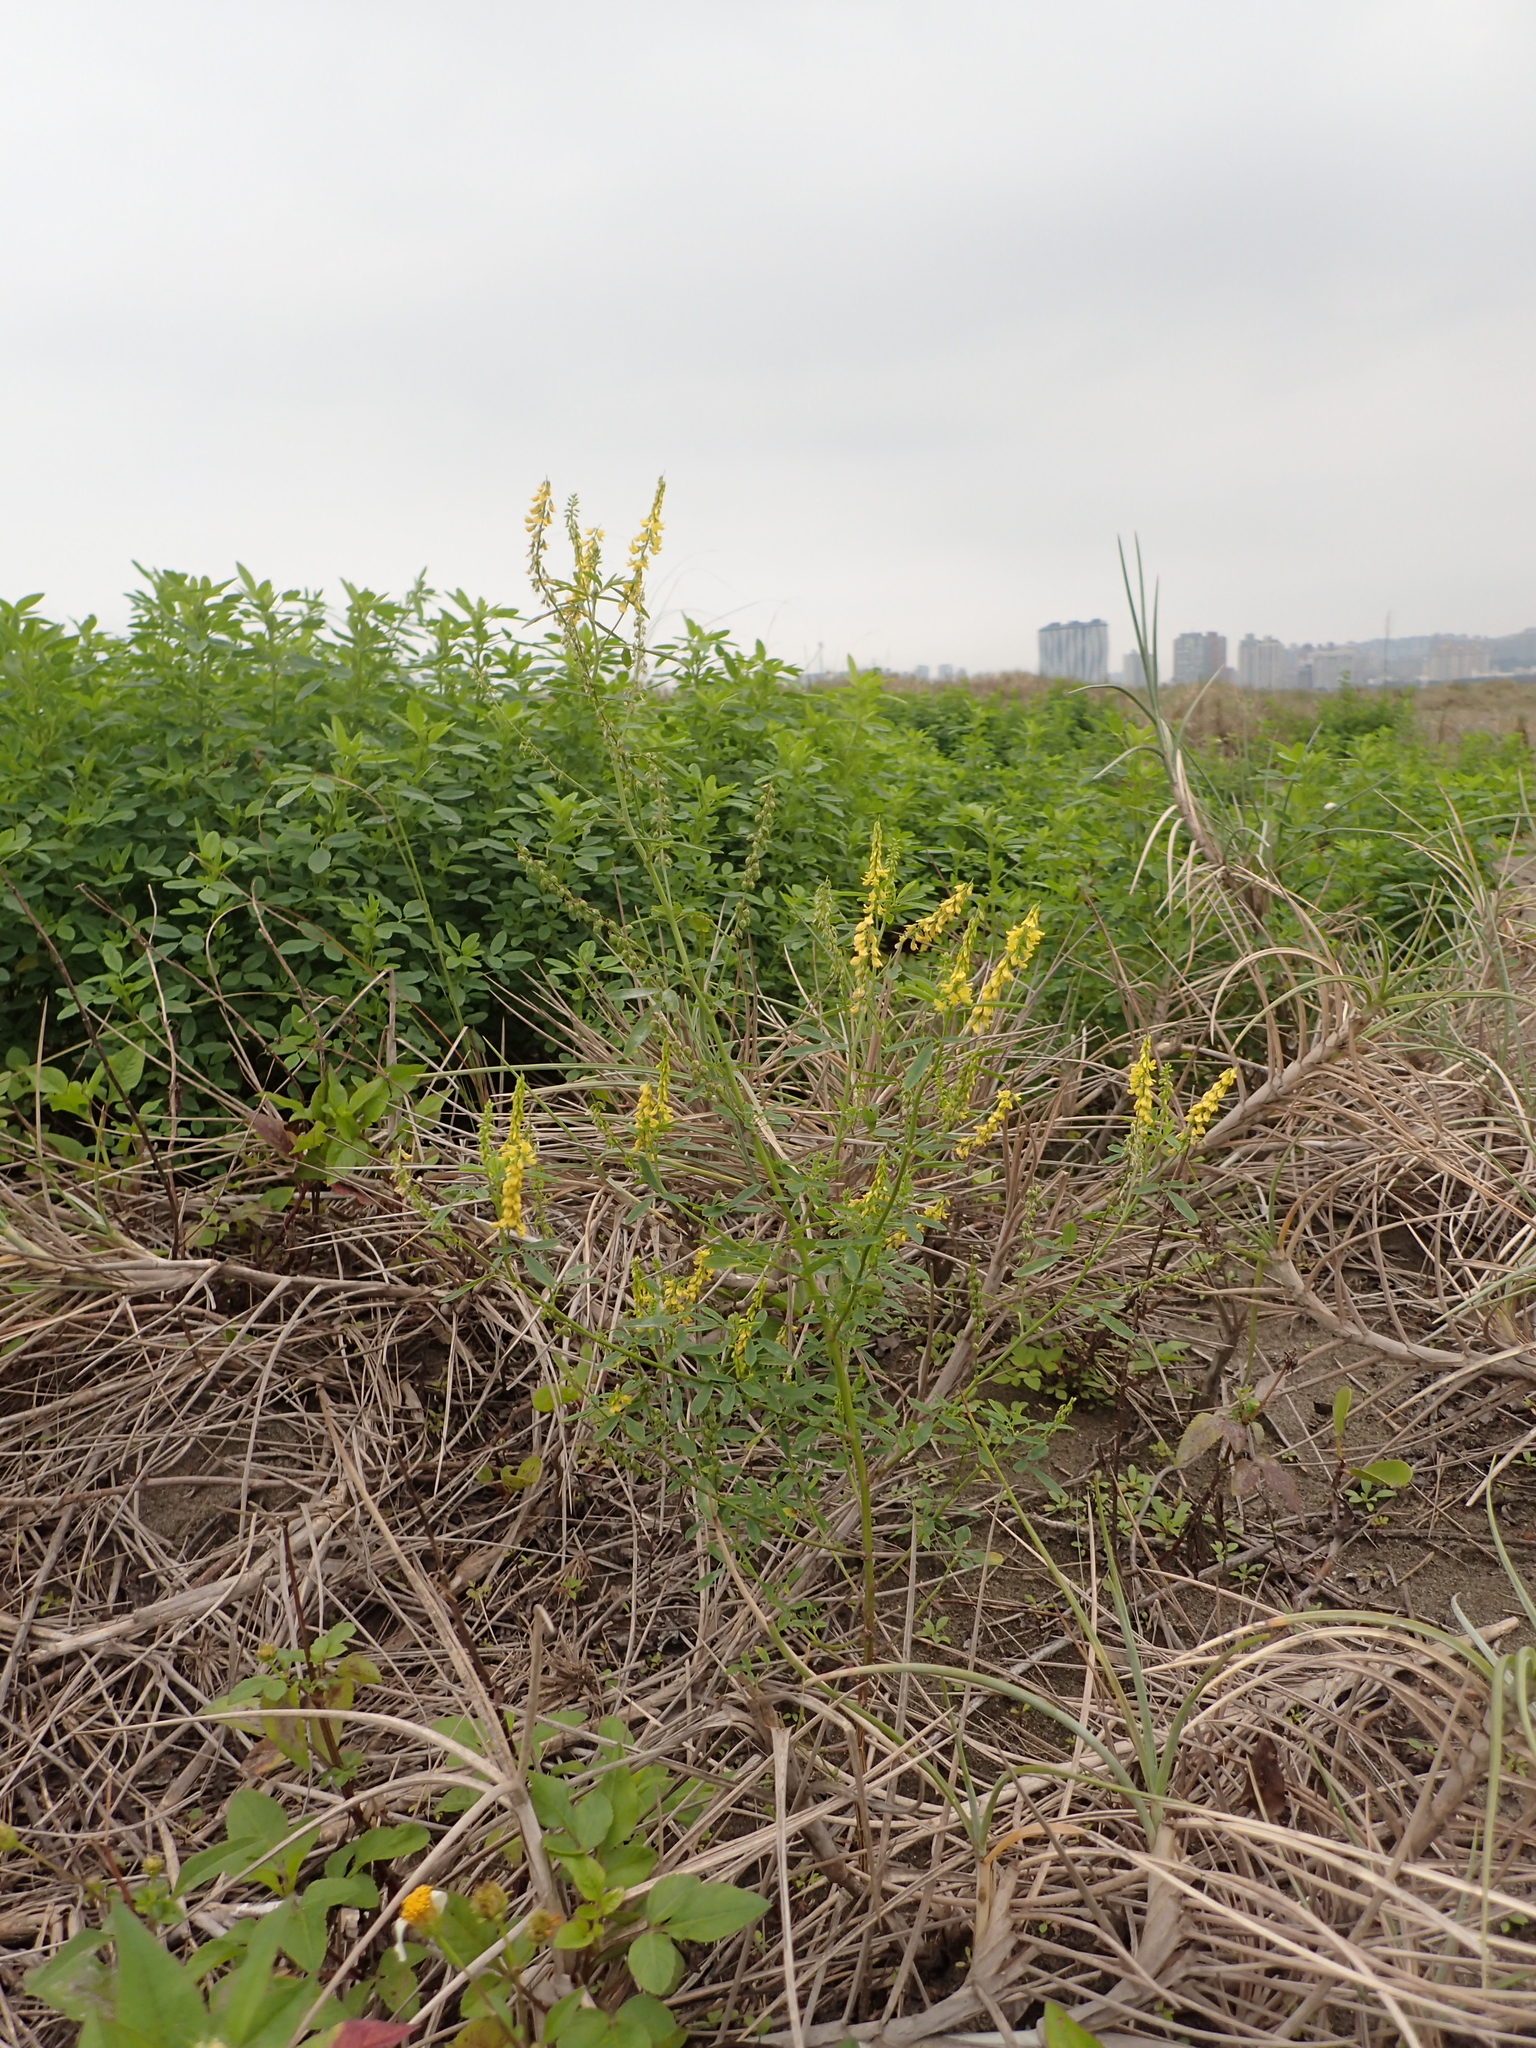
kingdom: Plantae
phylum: Tracheophyta
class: Magnoliopsida
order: Fabales
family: Fabaceae
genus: Melilotus
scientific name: Melilotus indicus
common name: Small melilot
